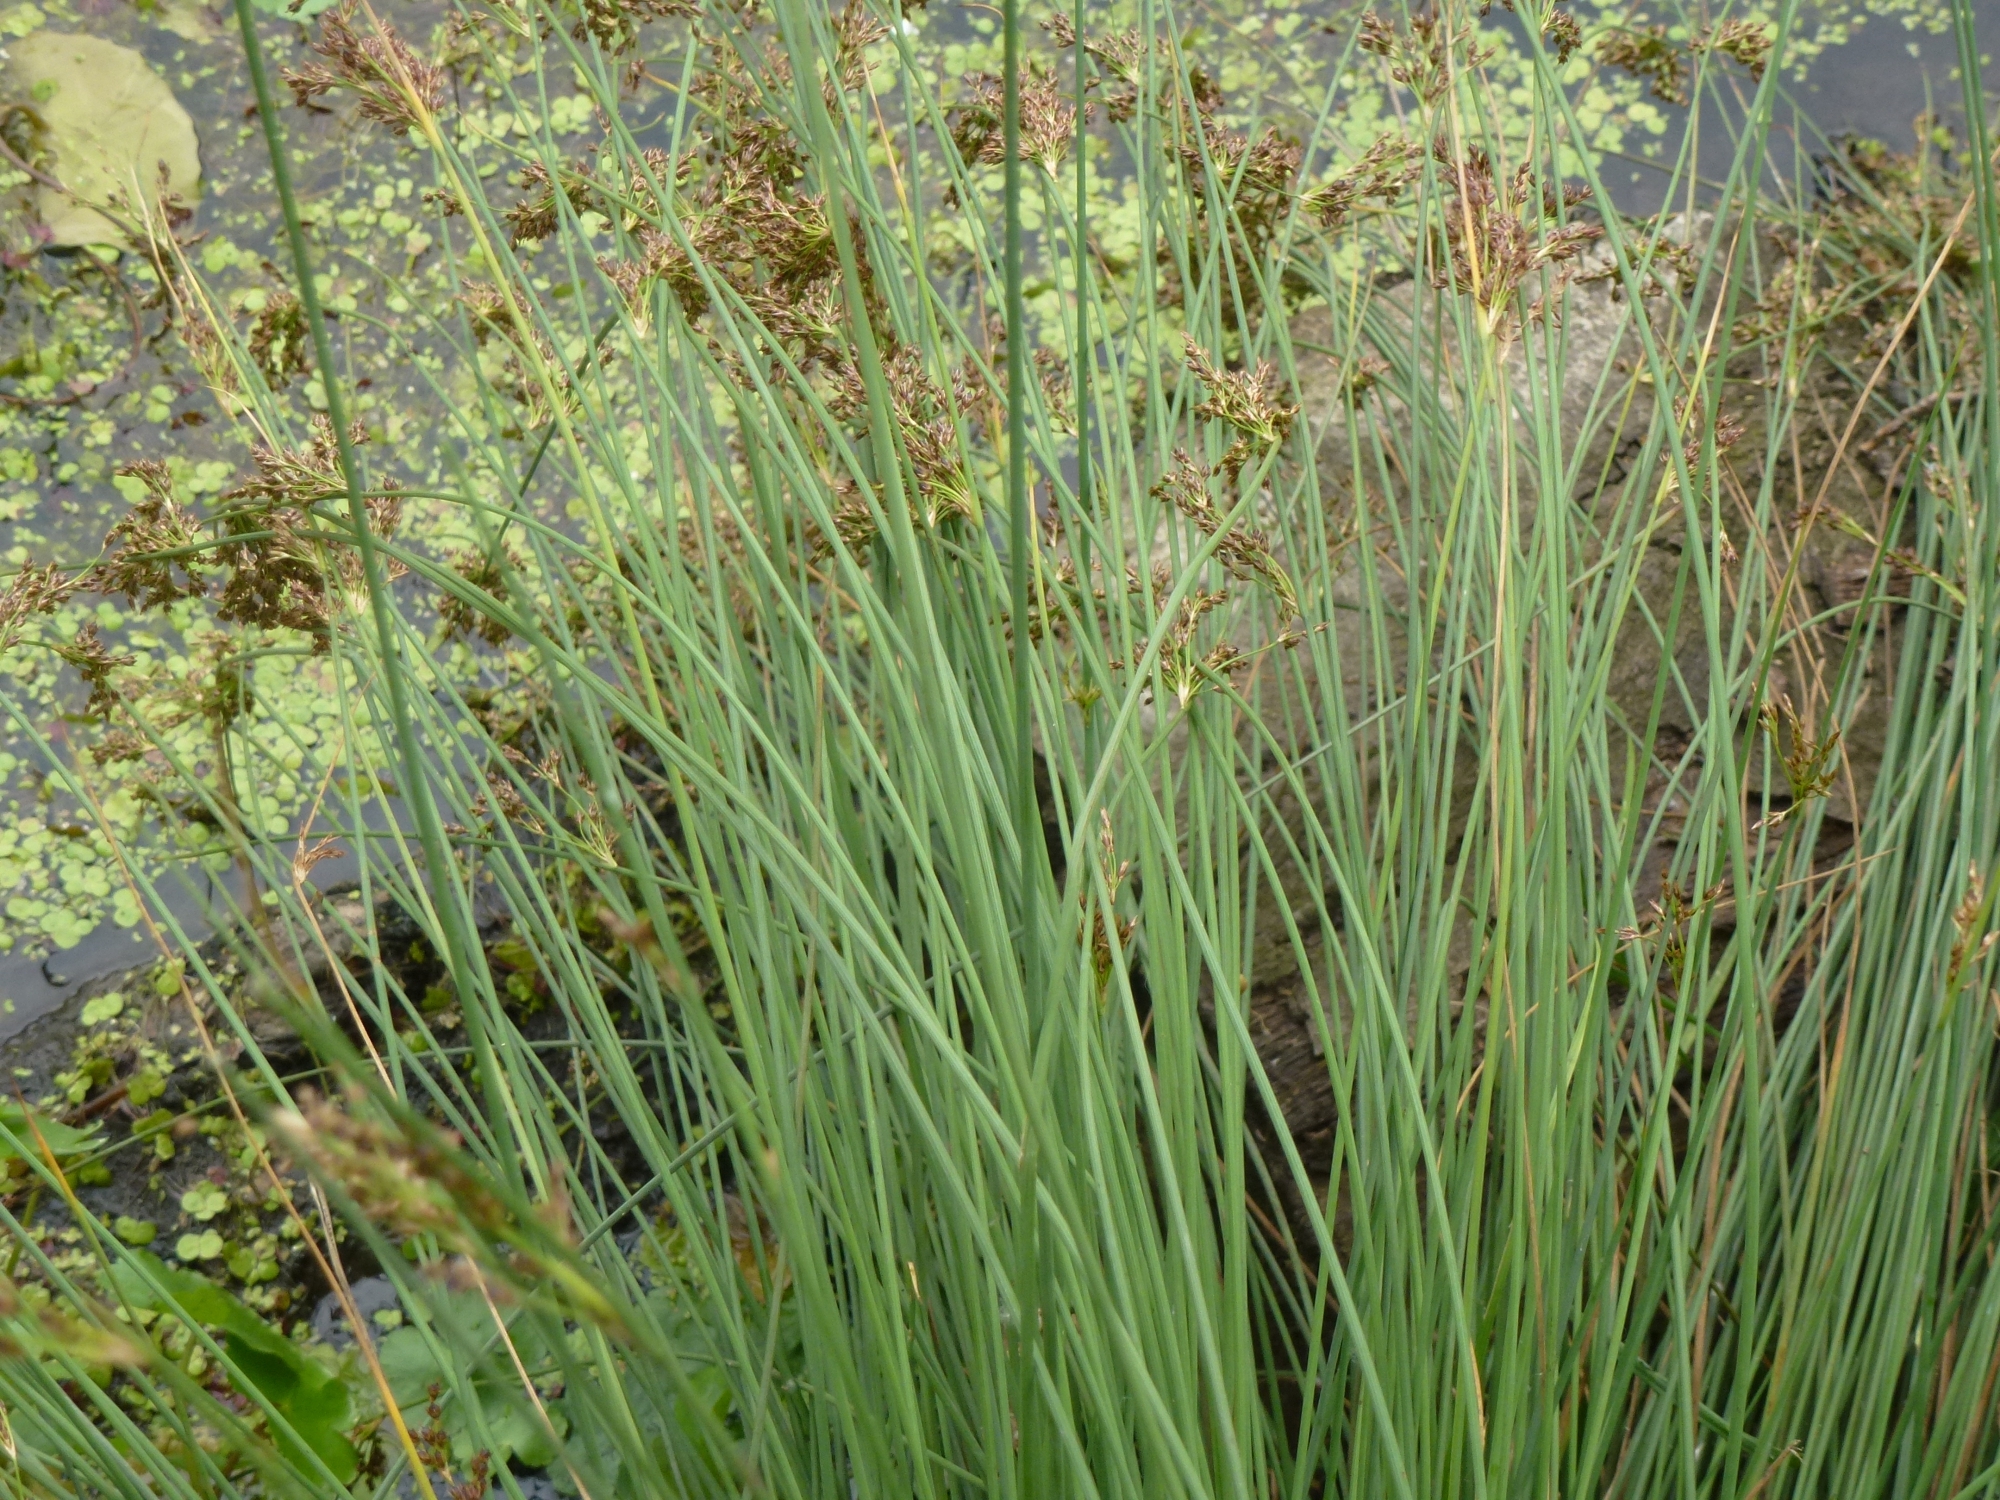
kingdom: Plantae
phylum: Tracheophyta
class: Liliopsida
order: Poales
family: Juncaceae
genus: Juncus
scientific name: Juncus inflexus
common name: Hard rush
